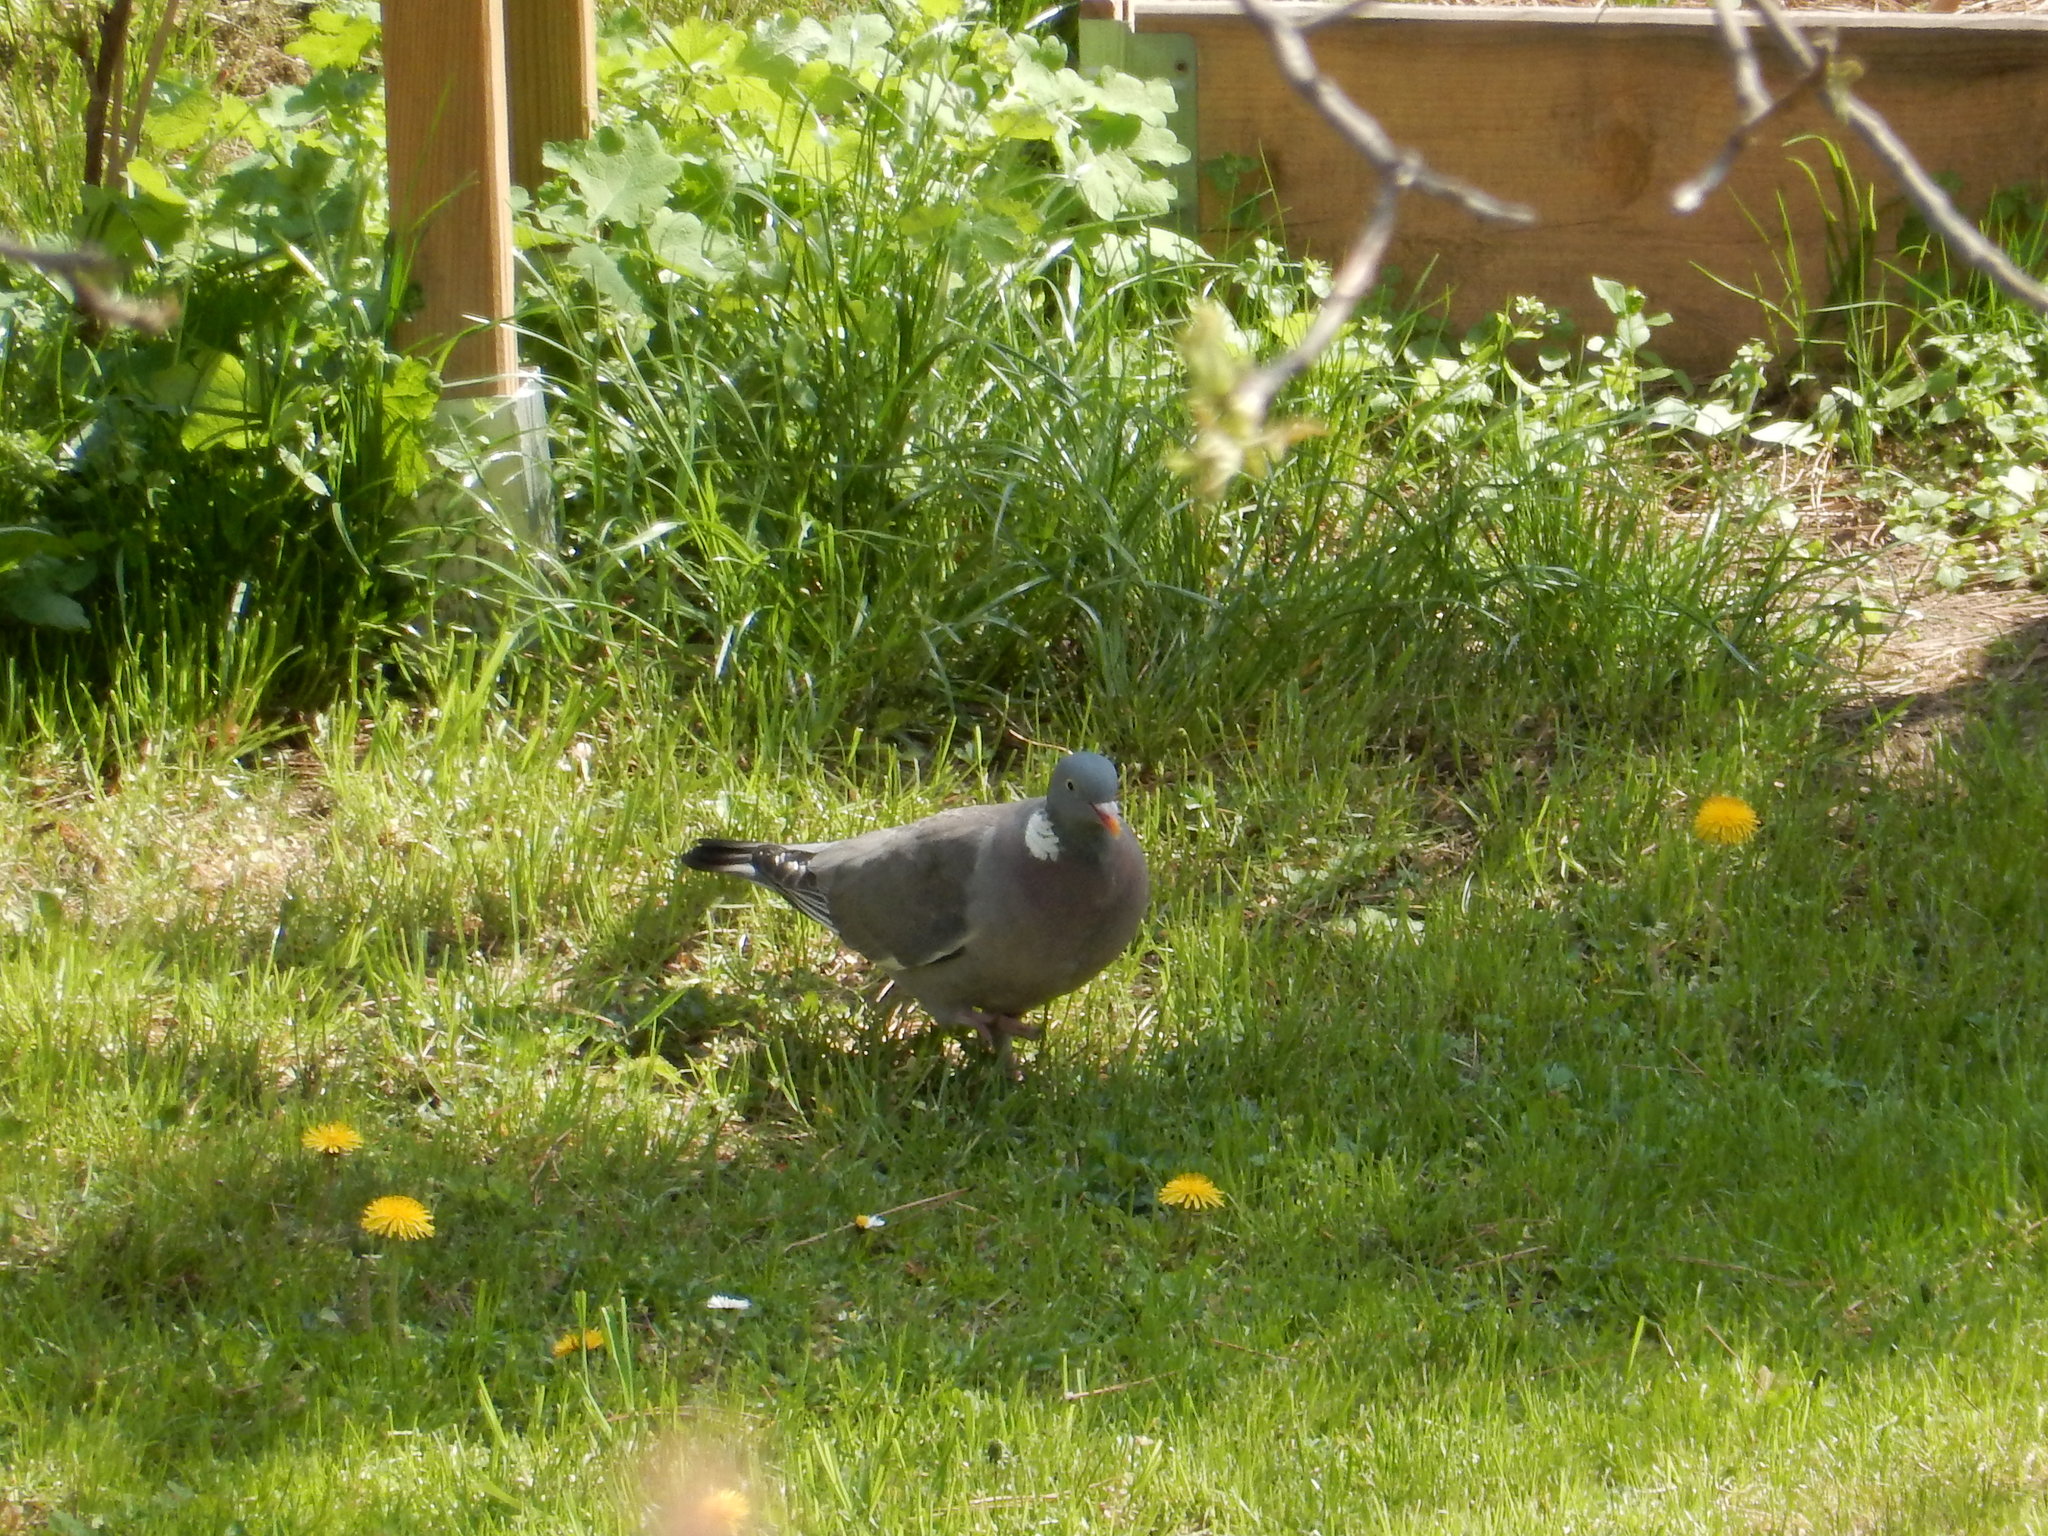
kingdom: Animalia
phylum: Chordata
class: Aves
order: Columbiformes
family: Columbidae
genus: Columba
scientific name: Columba palumbus
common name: Common wood pigeon
